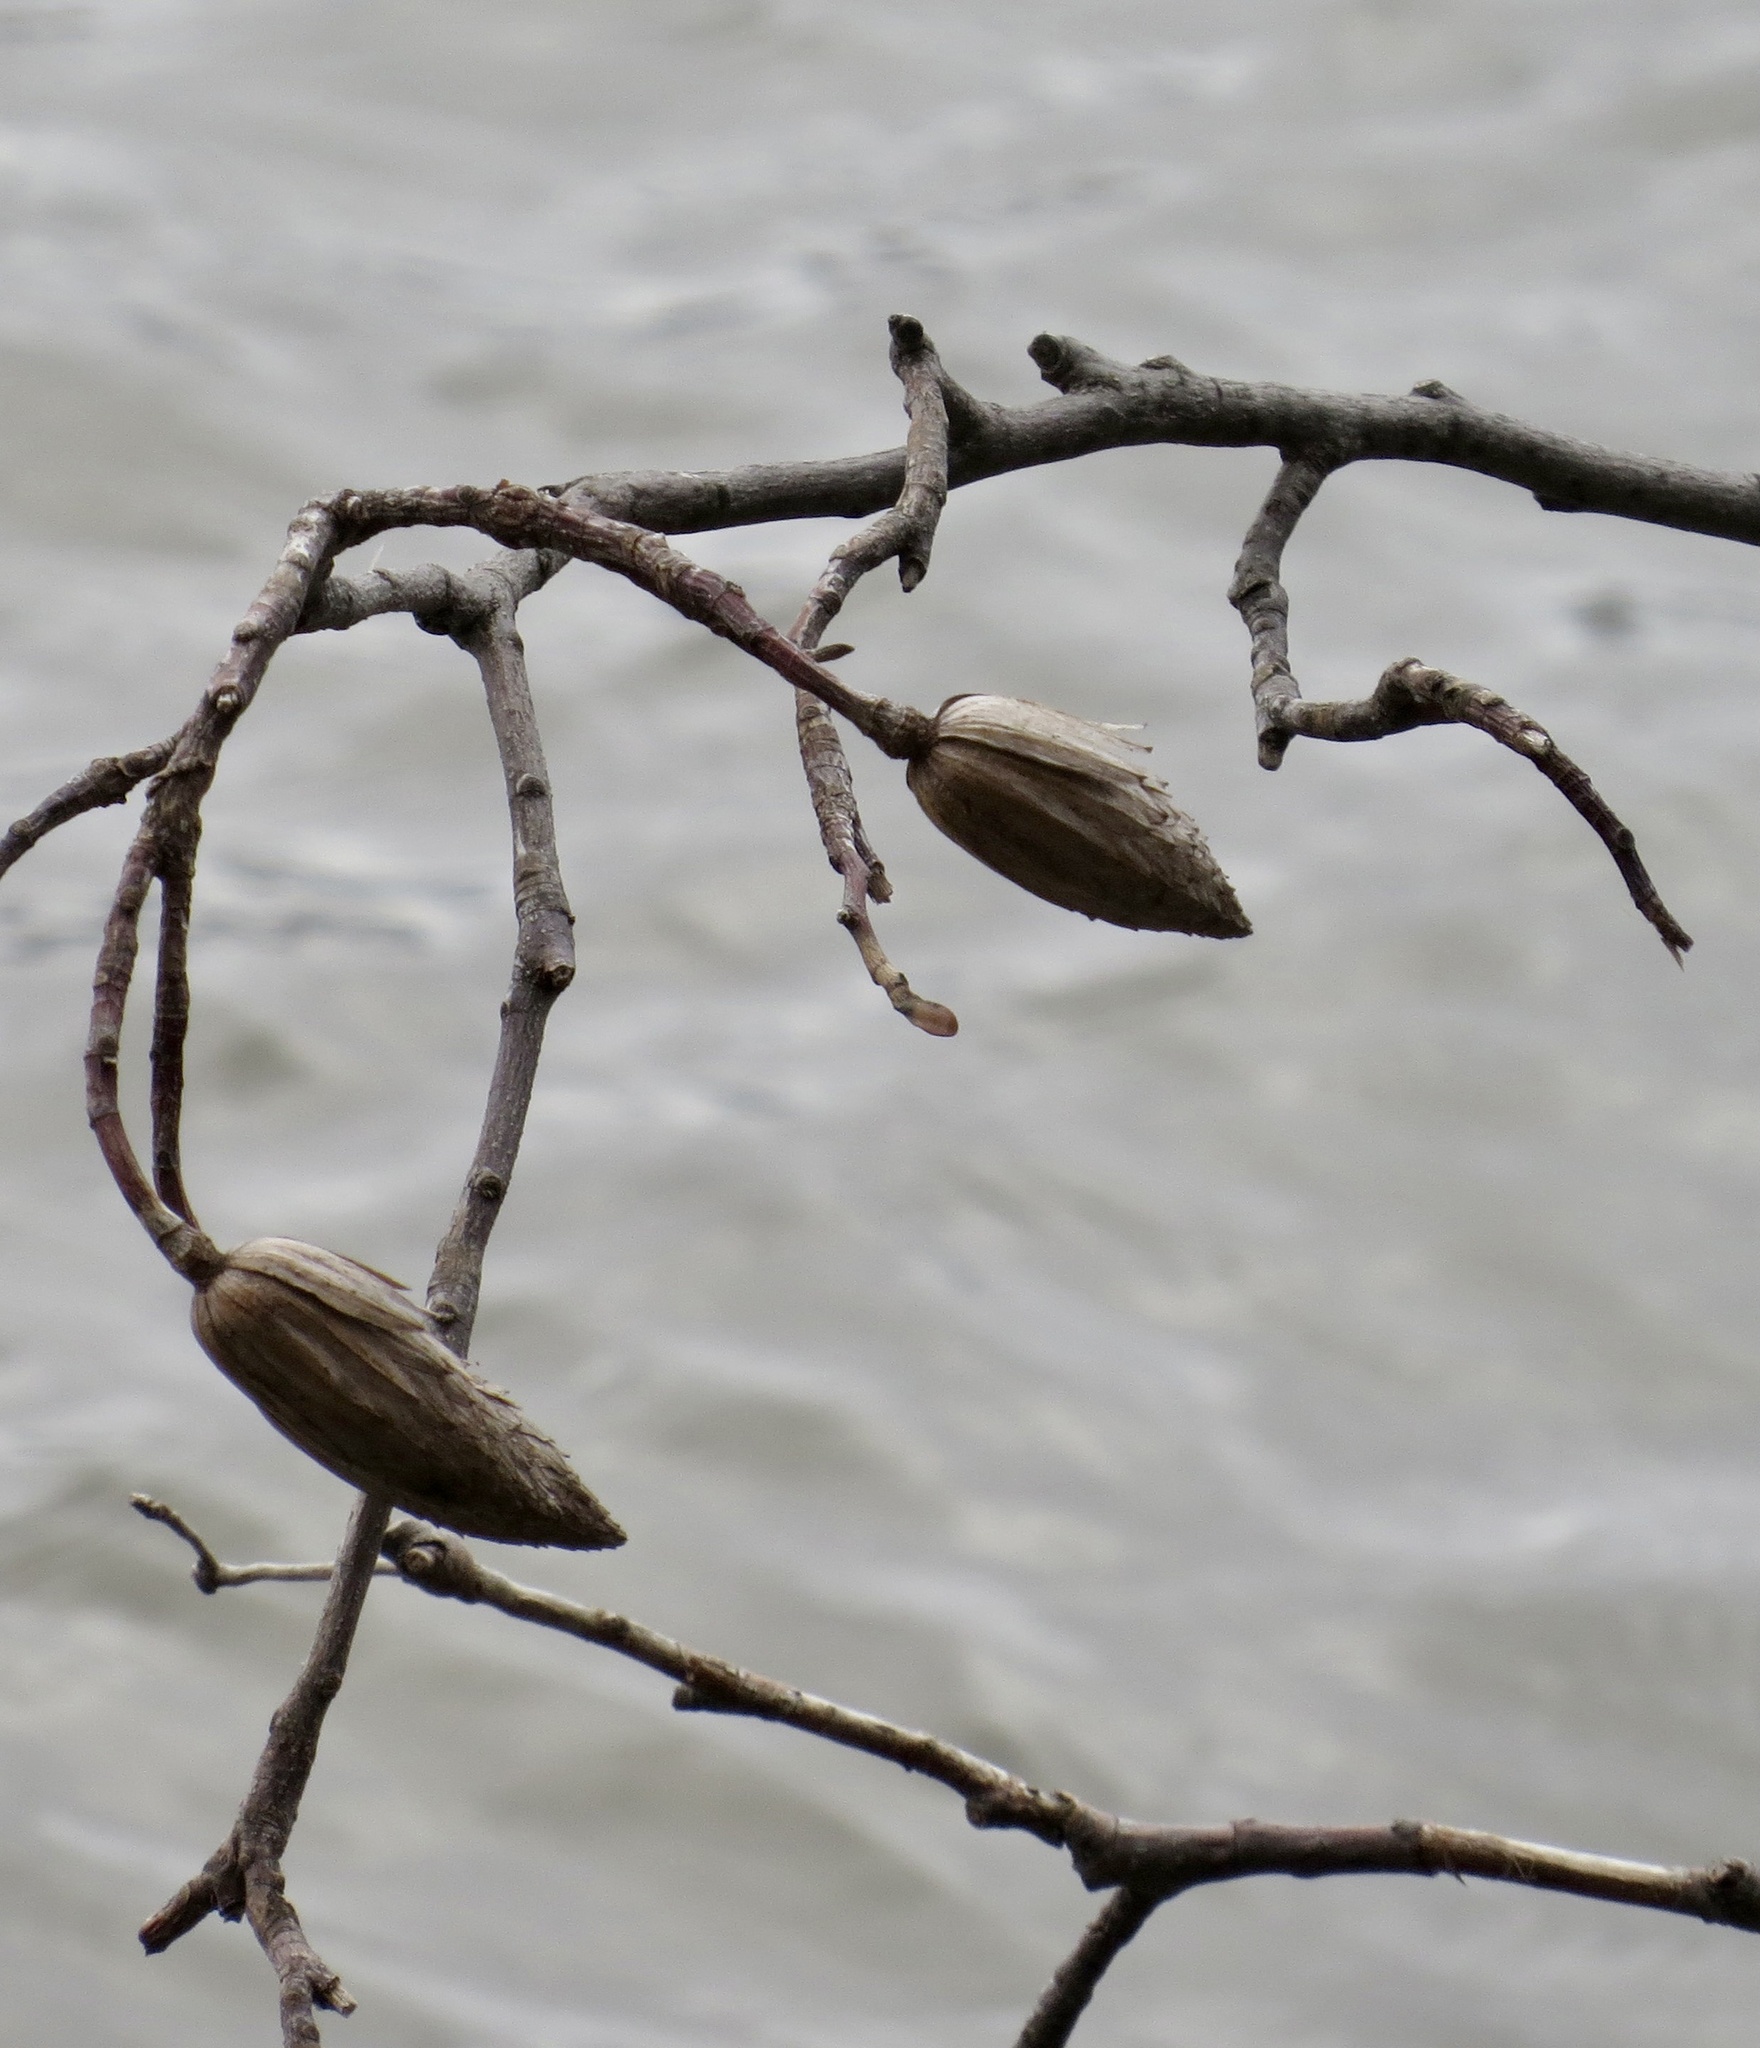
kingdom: Plantae
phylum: Tracheophyta
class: Magnoliopsida
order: Magnoliales
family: Magnoliaceae
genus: Liriodendron
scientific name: Liriodendron tulipifera
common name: Tulip tree
